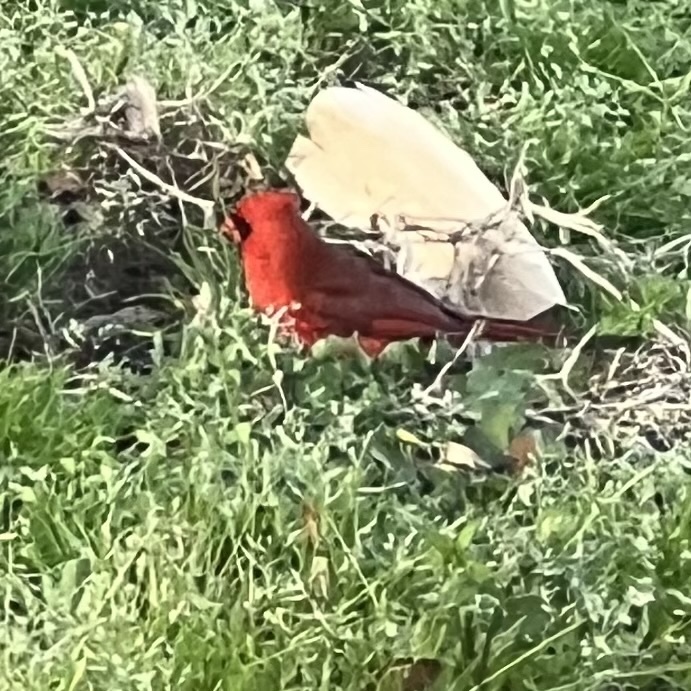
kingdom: Animalia
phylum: Chordata
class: Aves
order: Passeriformes
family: Cardinalidae
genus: Cardinalis
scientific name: Cardinalis cardinalis
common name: Northern cardinal
